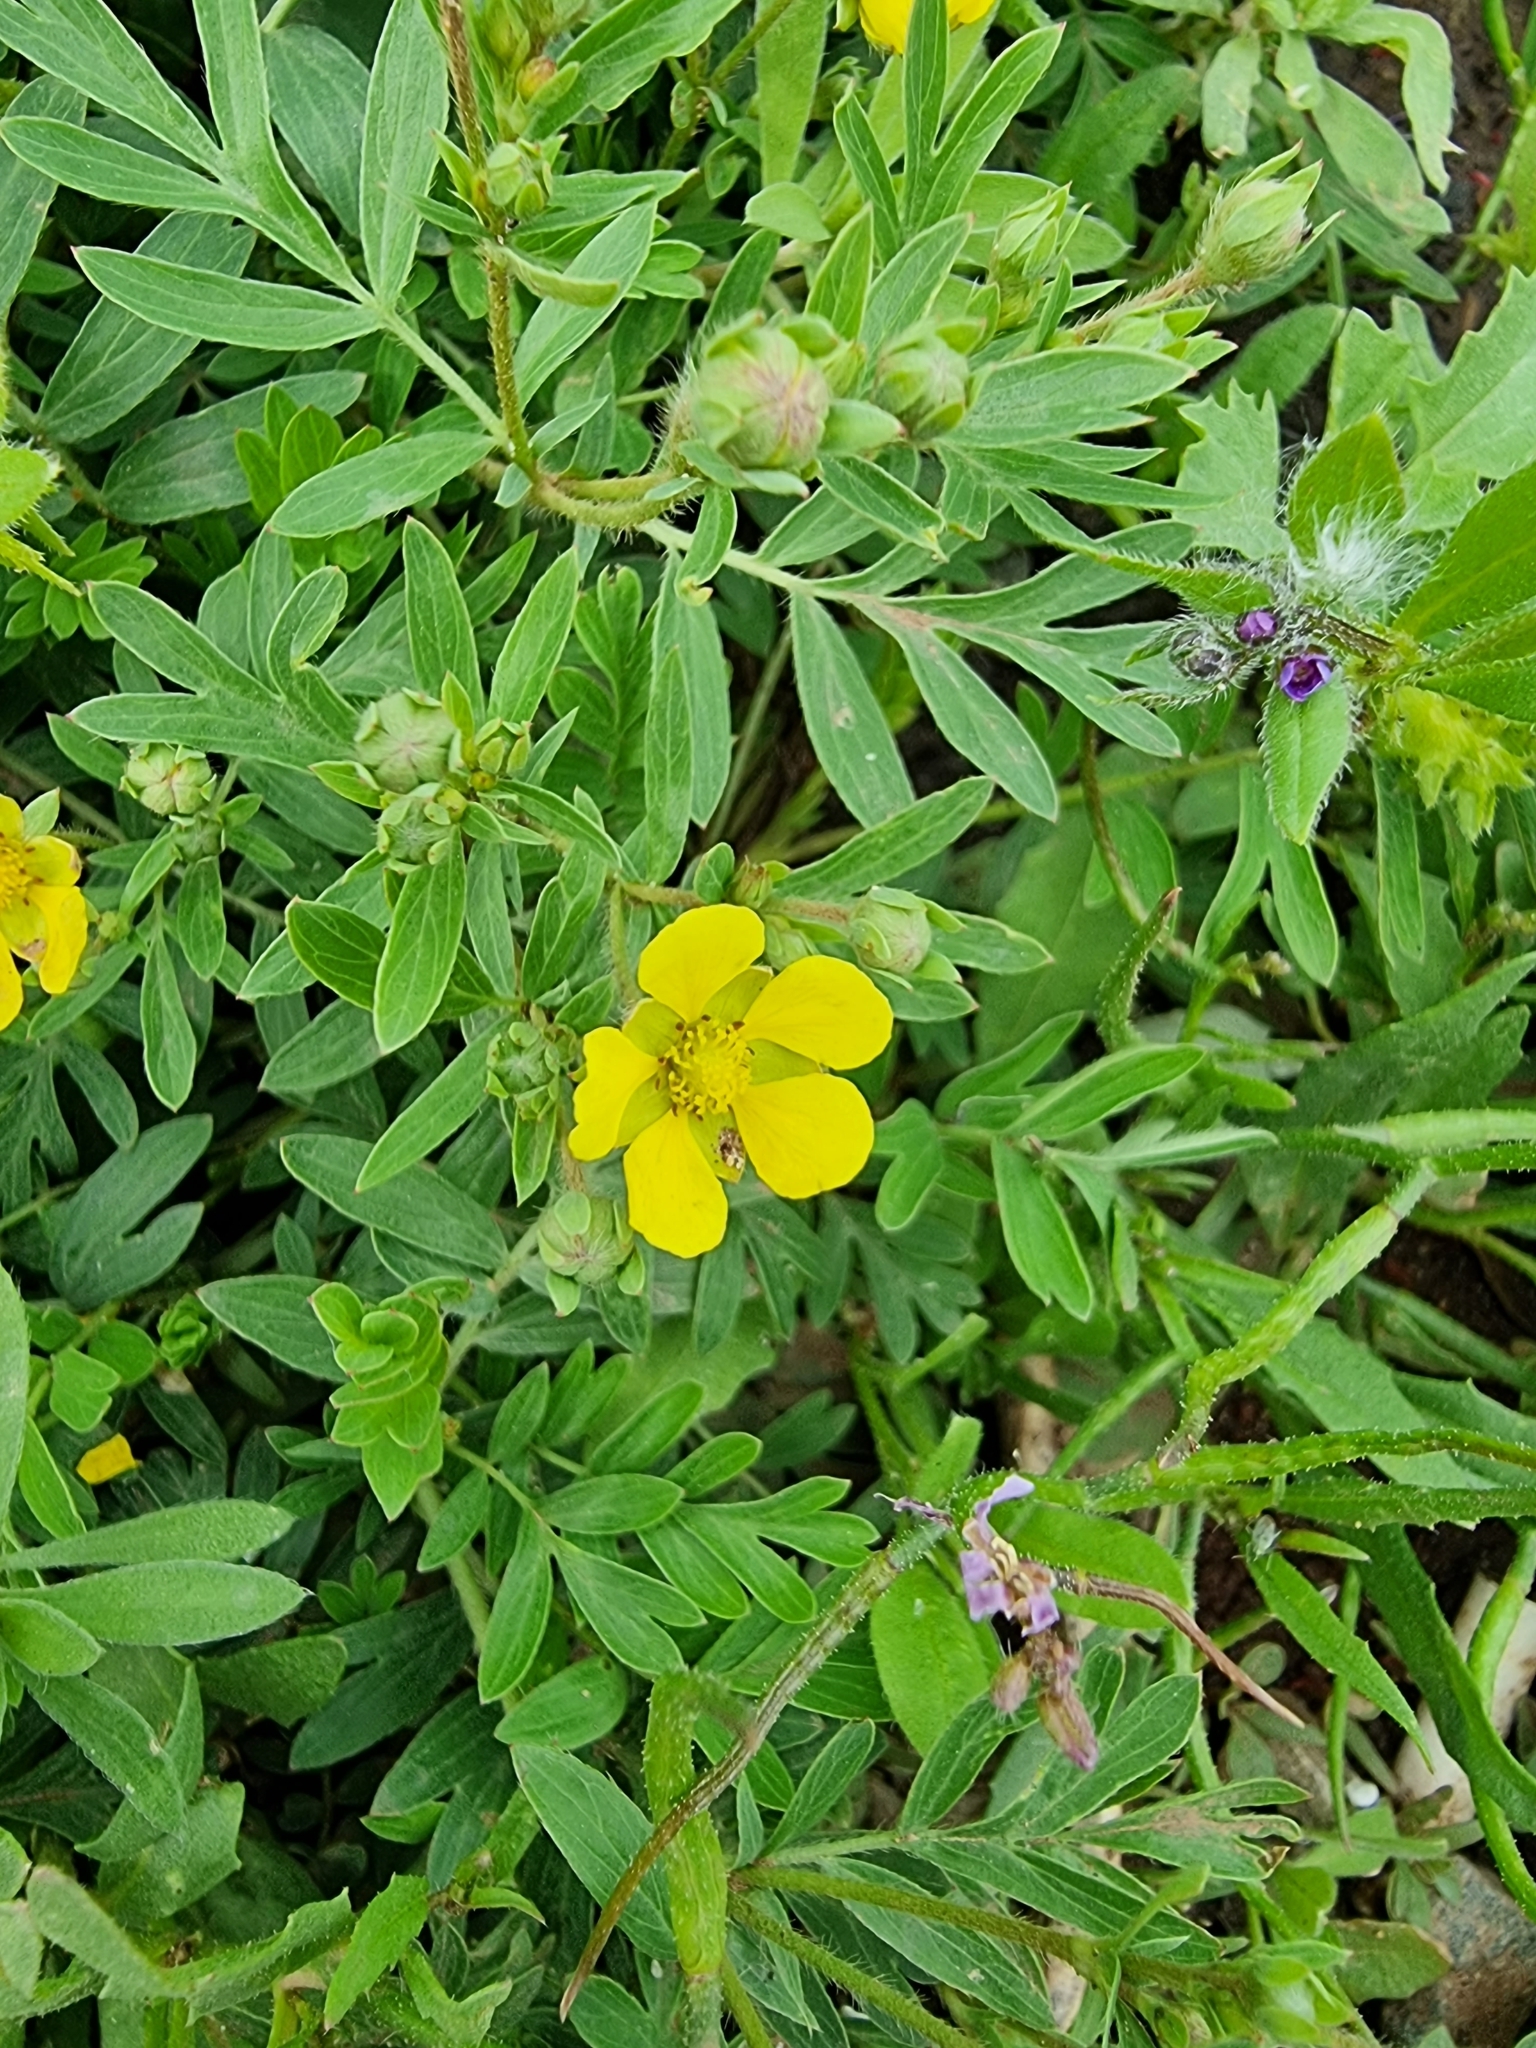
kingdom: Plantae
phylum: Tracheophyta
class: Magnoliopsida
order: Rosales
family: Rosaceae
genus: Sibbaldianthe
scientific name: Sibbaldianthe bifurca
